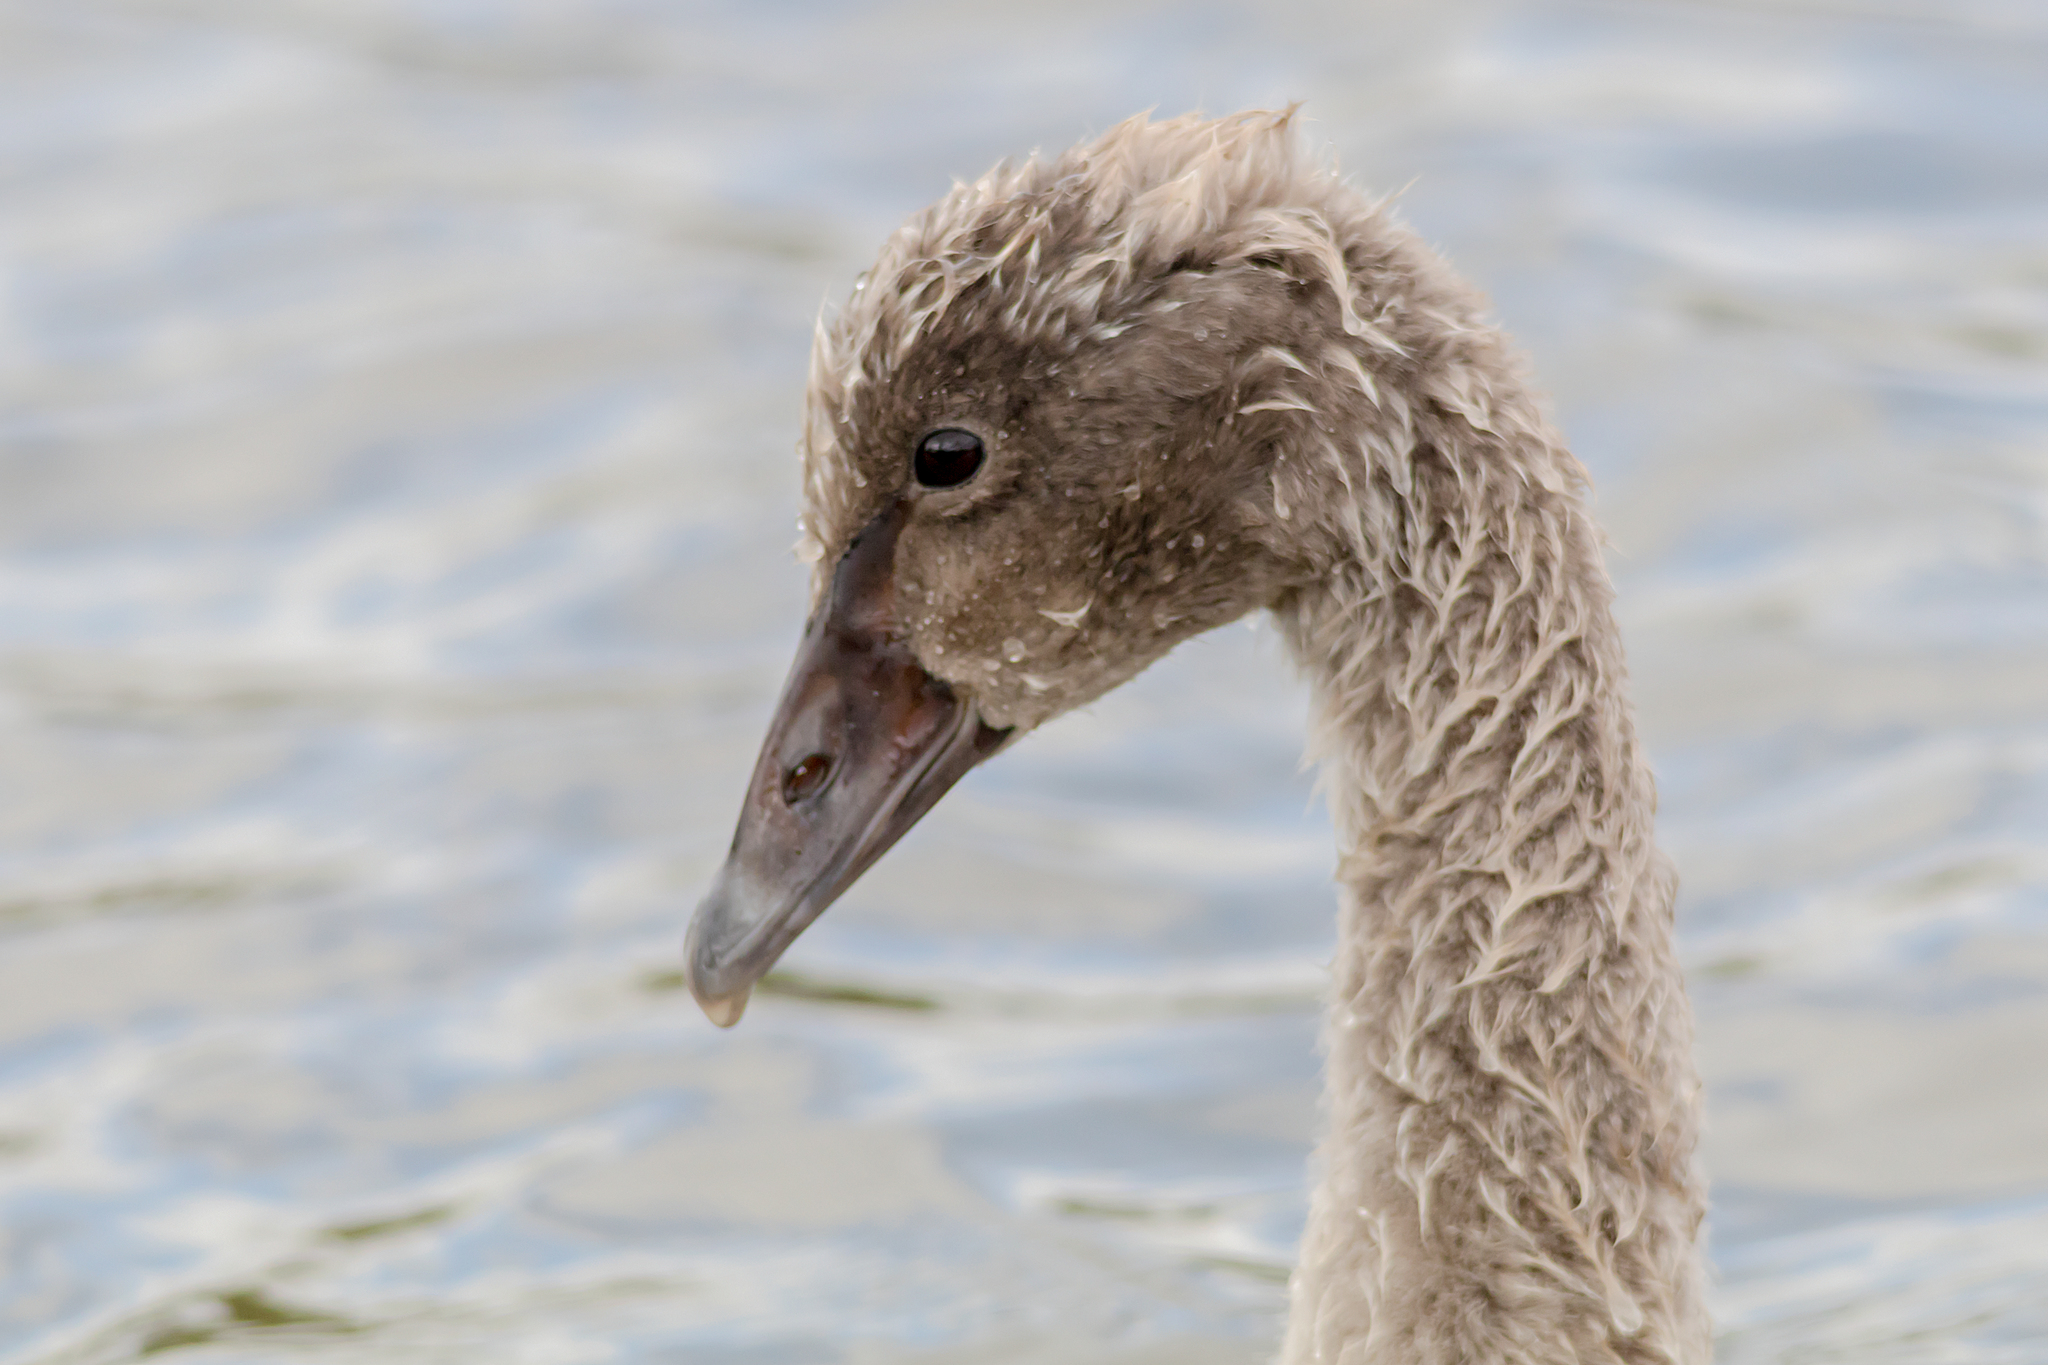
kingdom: Animalia
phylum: Chordata
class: Aves
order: Anseriformes
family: Anatidae
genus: Cygnus
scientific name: Cygnus atratus
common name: Black swan
